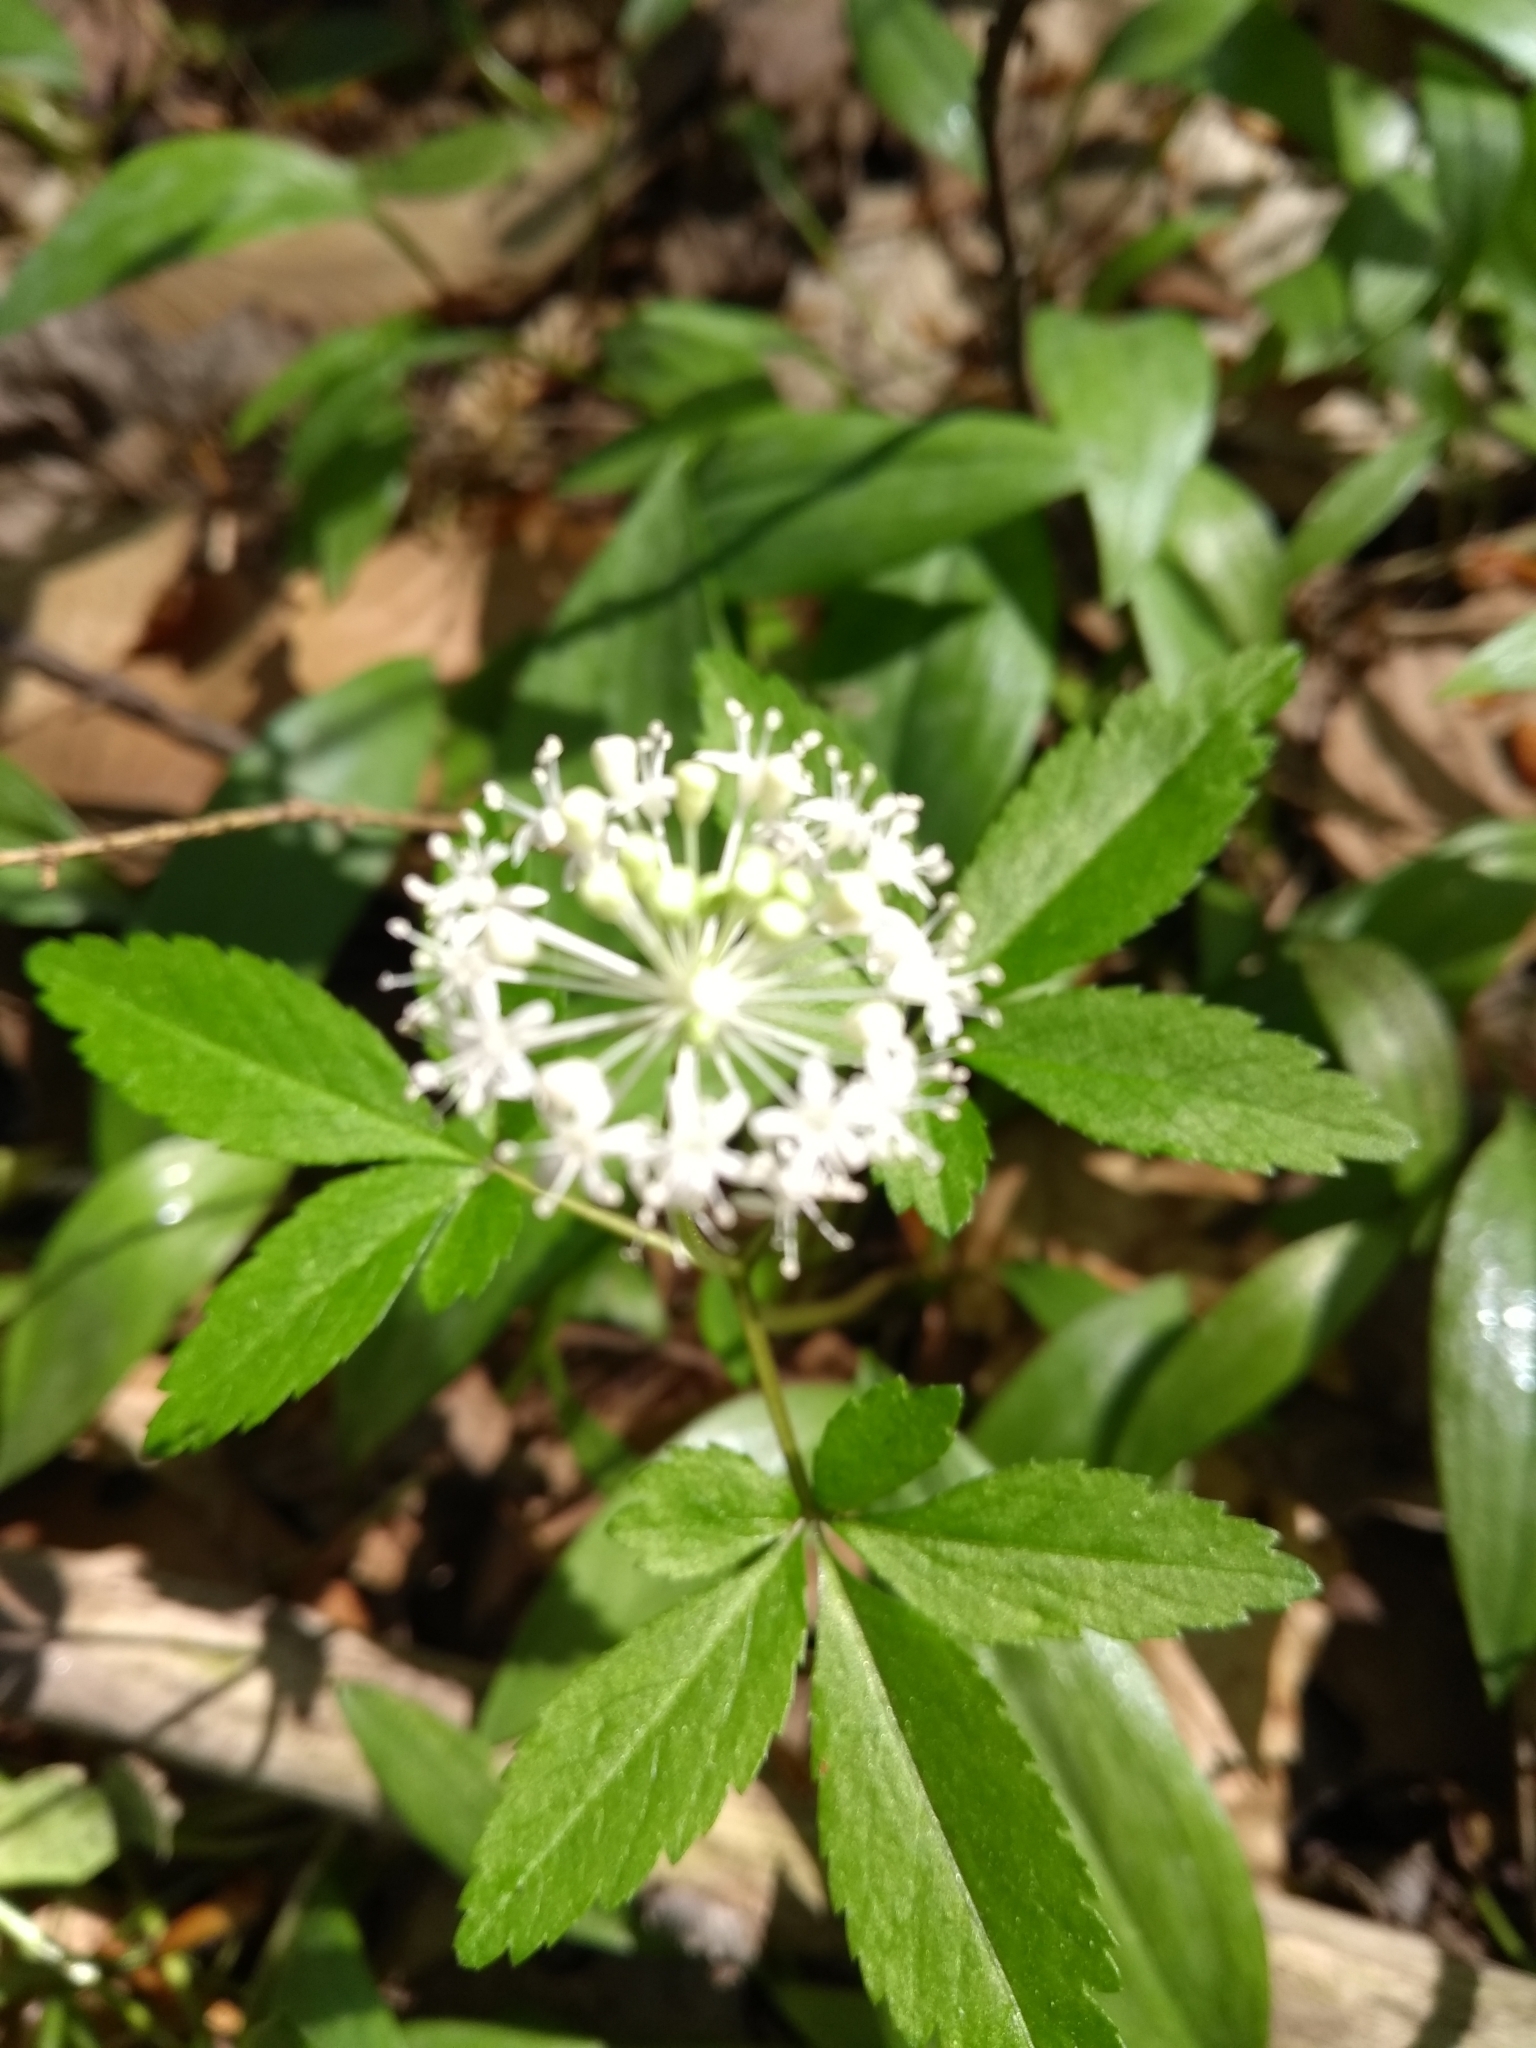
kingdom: Plantae
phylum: Tracheophyta
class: Magnoliopsida
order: Apiales
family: Araliaceae
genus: Panax
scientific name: Panax trifolius
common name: Dwarf ginseng
